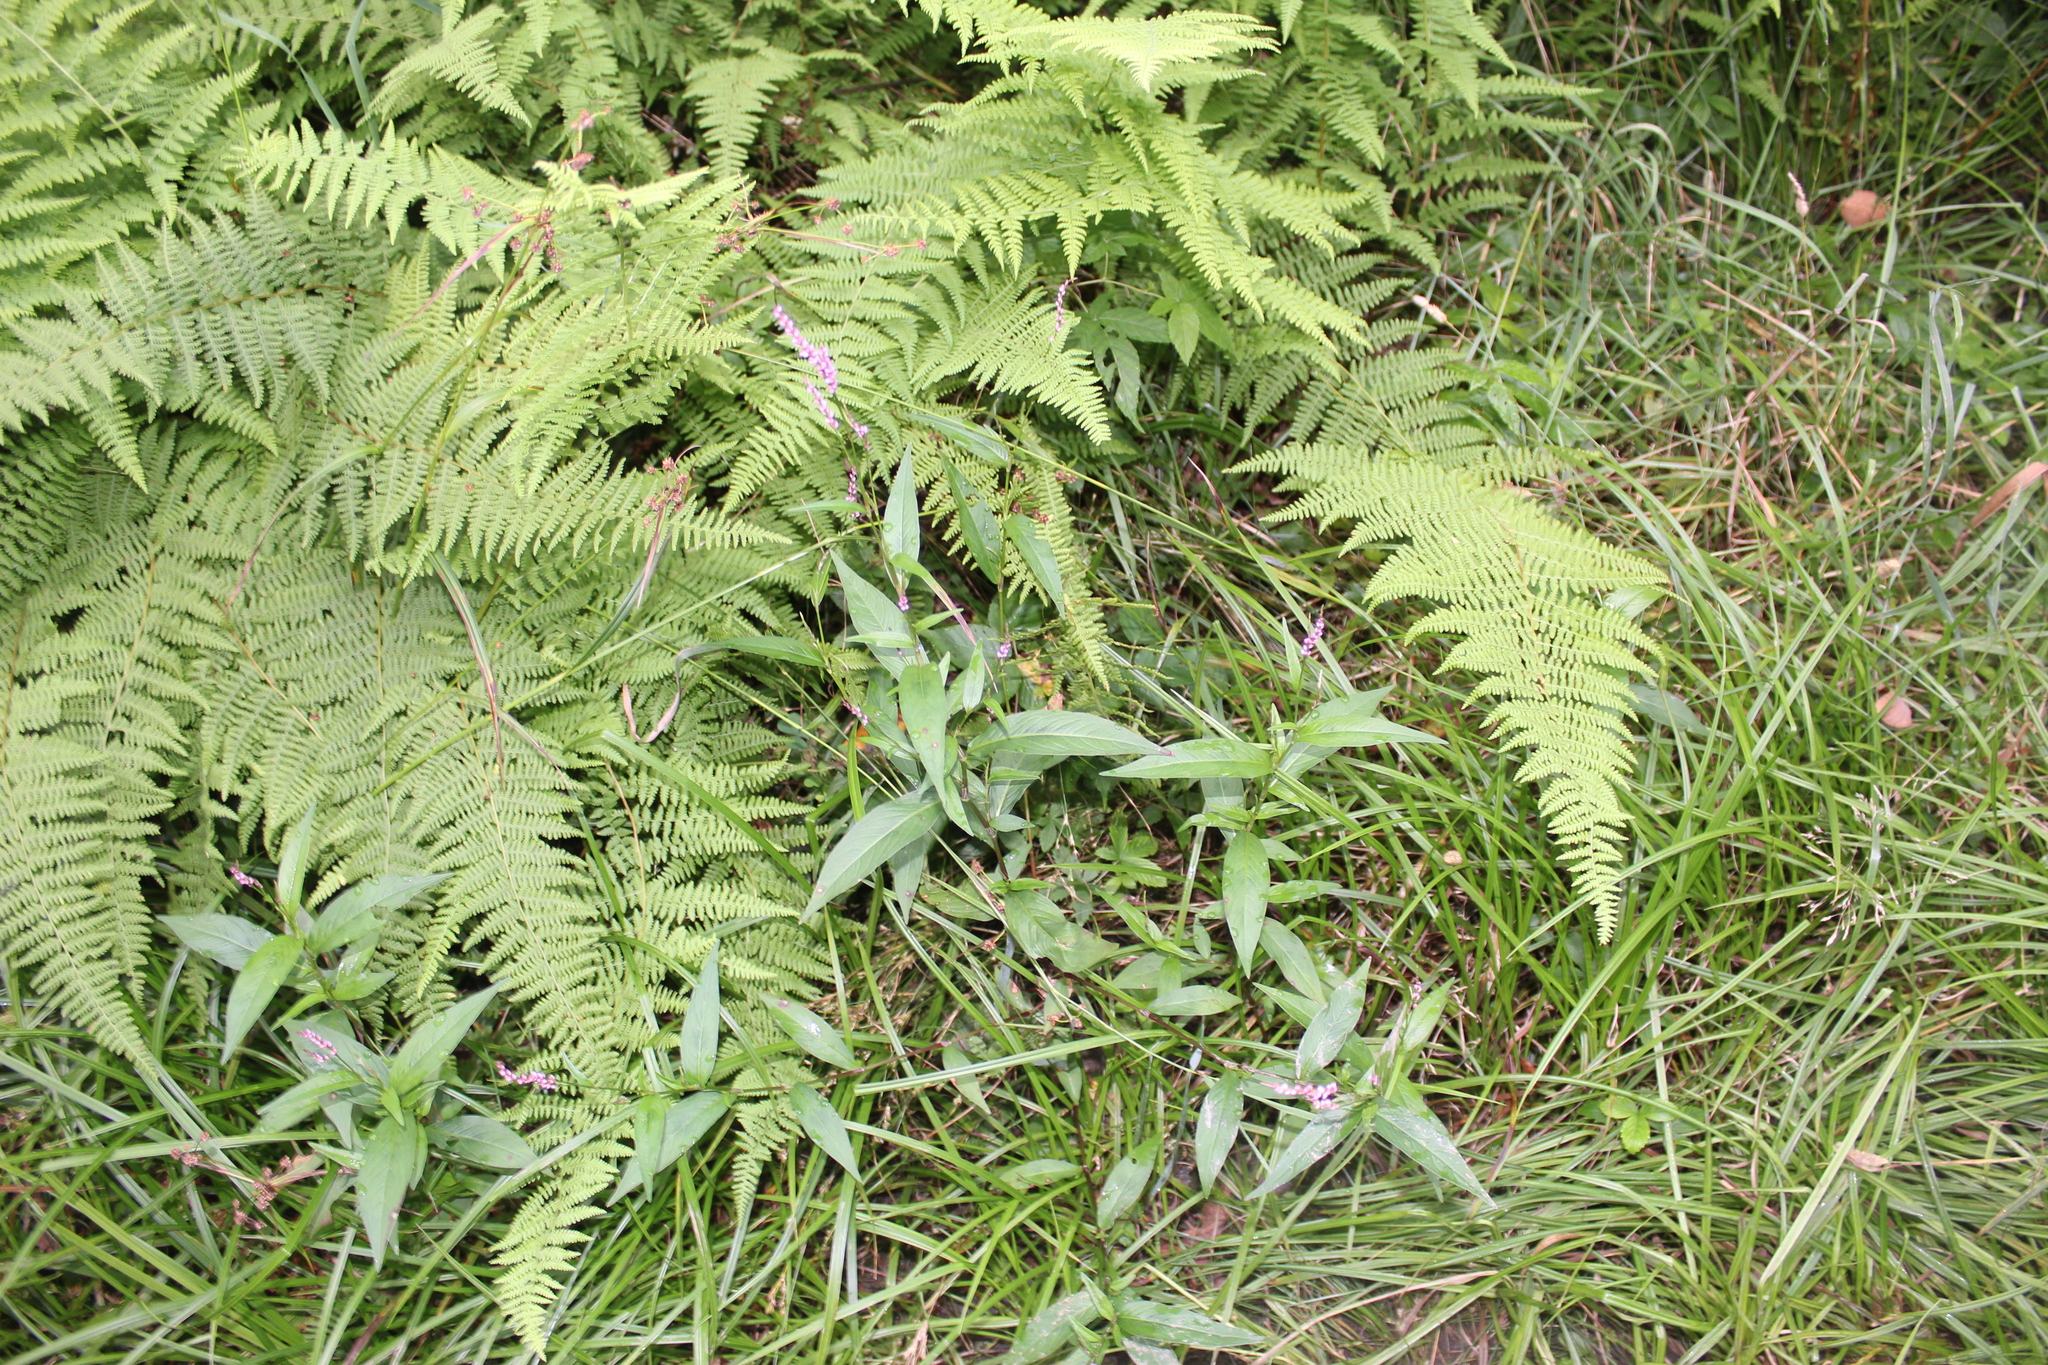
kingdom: Plantae
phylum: Tracheophyta
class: Polypodiopsida
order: Polypodiales
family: Dennstaedtiaceae
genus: Sitobolium
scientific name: Sitobolium punctilobum
